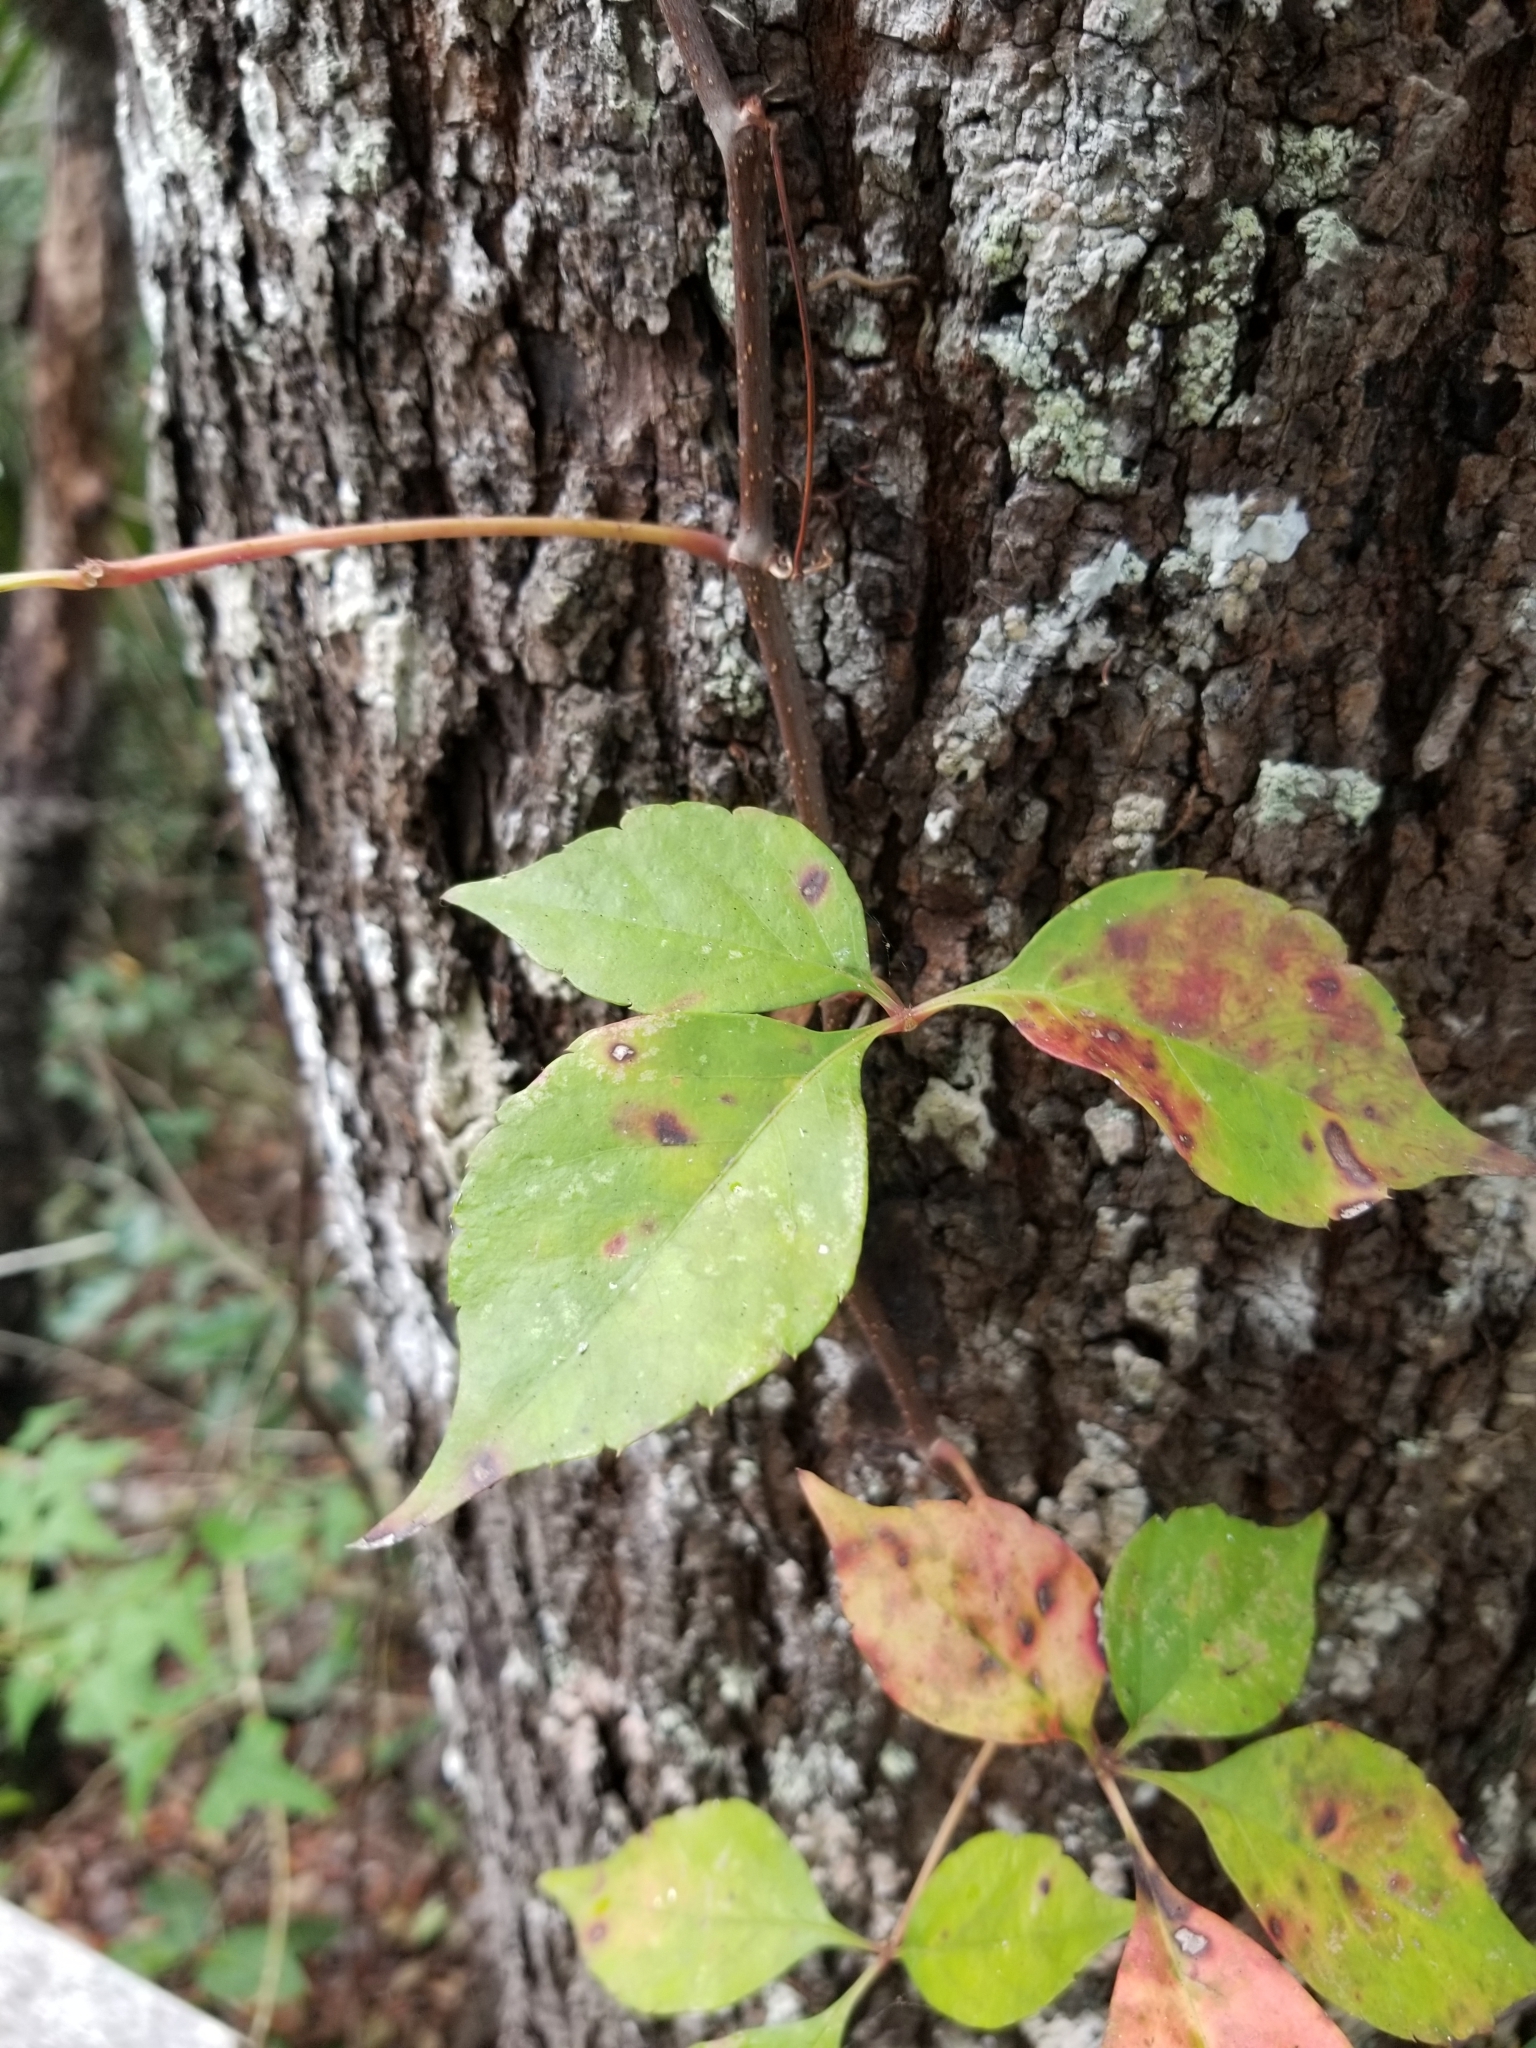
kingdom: Plantae
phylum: Tracheophyta
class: Magnoliopsida
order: Vitales
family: Vitaceae
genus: Parthenocissus
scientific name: Parthenocissus quinquefolia
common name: Virginia-creeper
